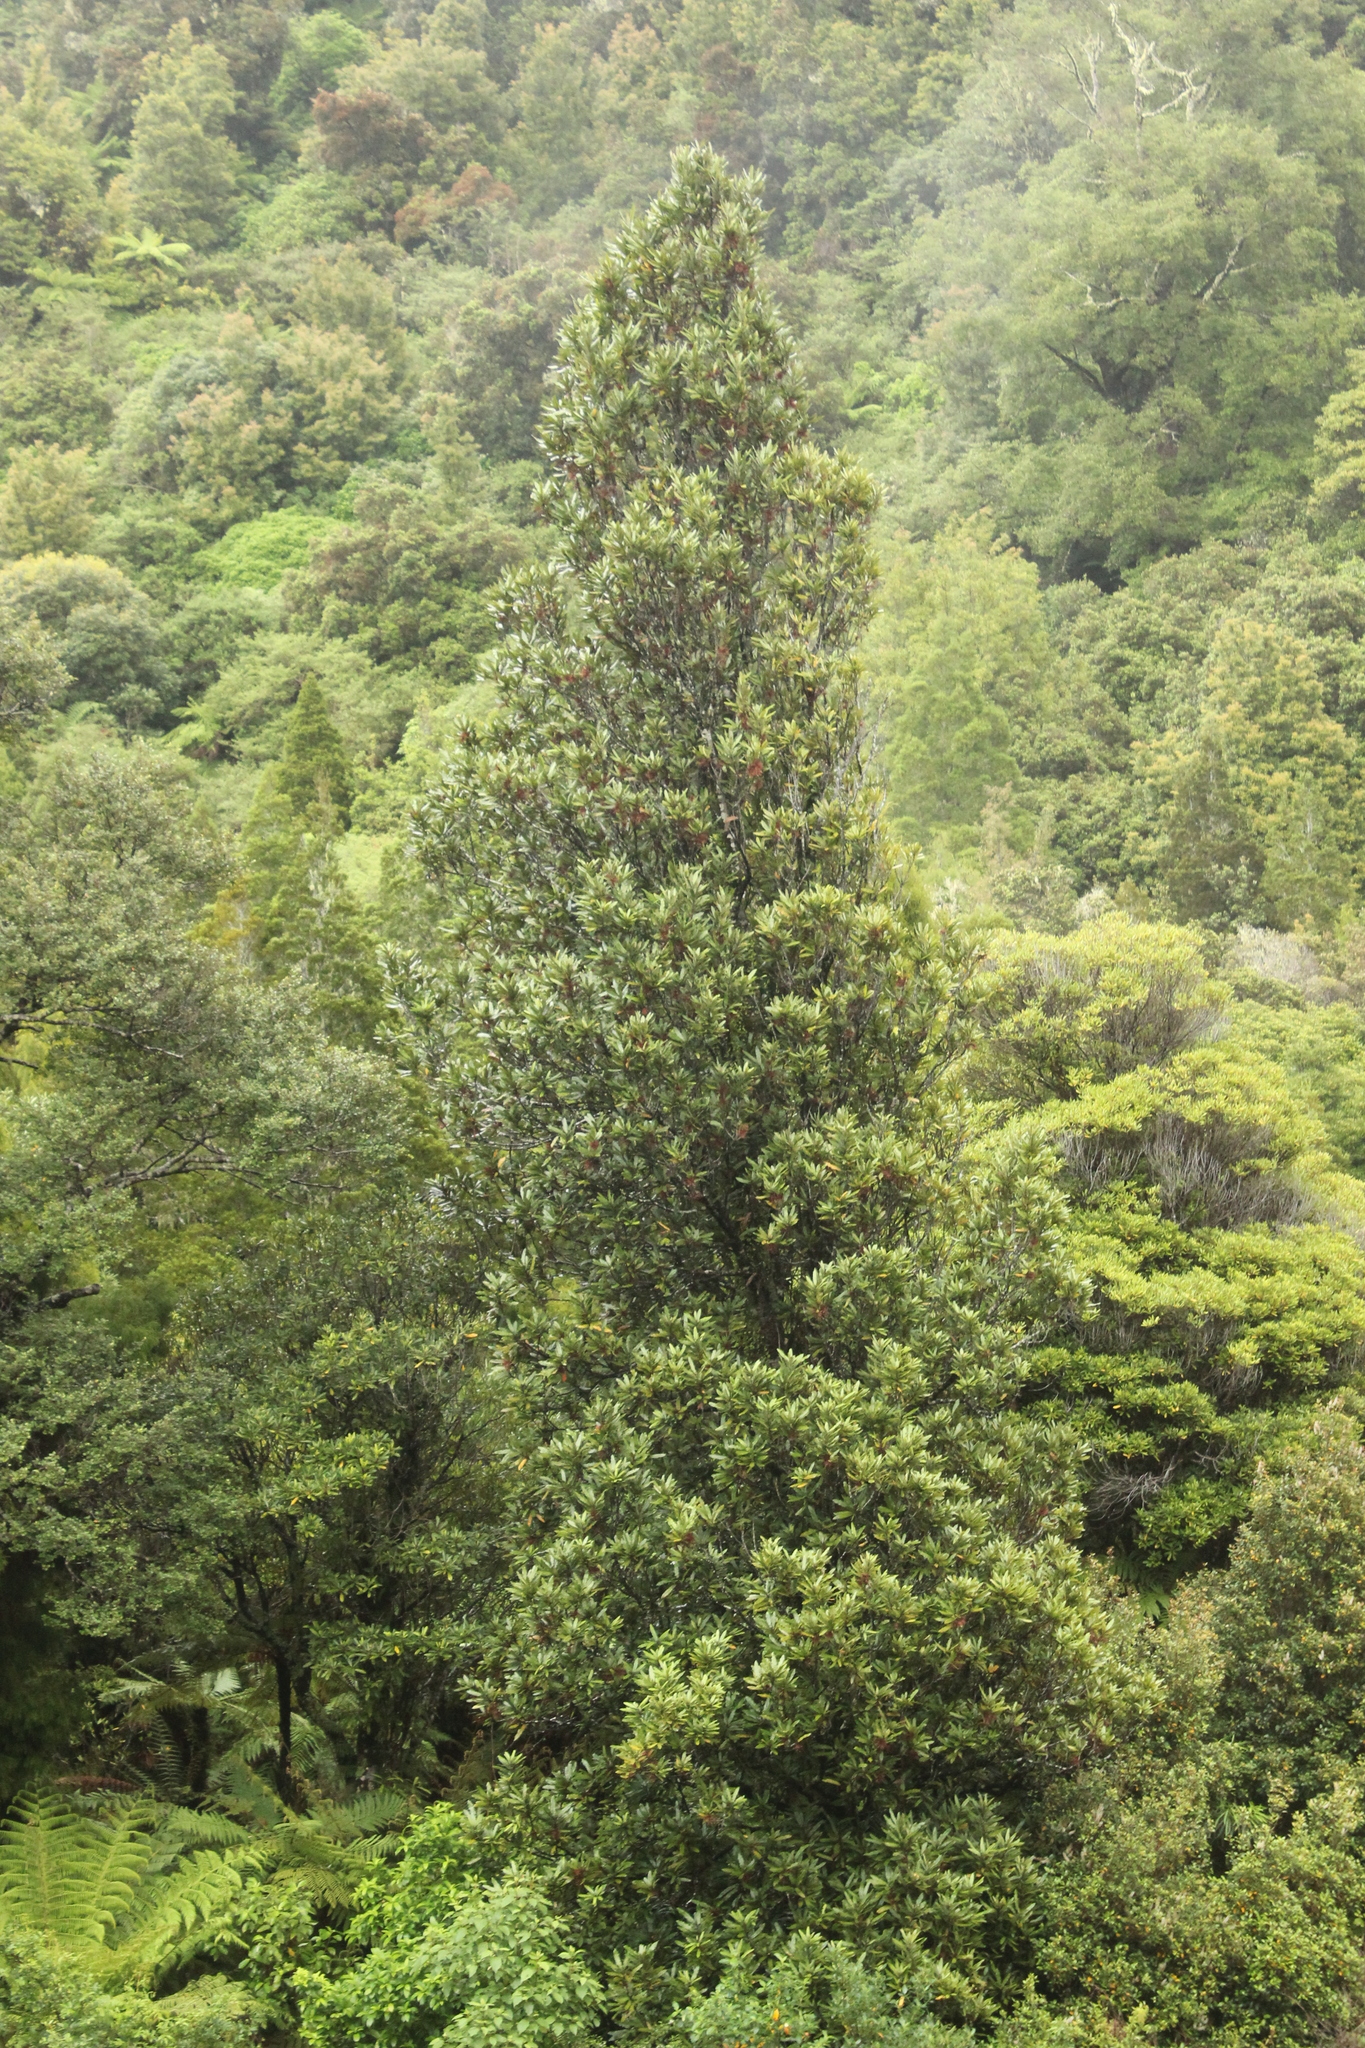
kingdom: Plantae
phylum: Tracheophyta
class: Magnoliopsida
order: Proteales
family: Proteaceae
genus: Knightia
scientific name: Knightia excelsa
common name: New zealand-honeysuckle
